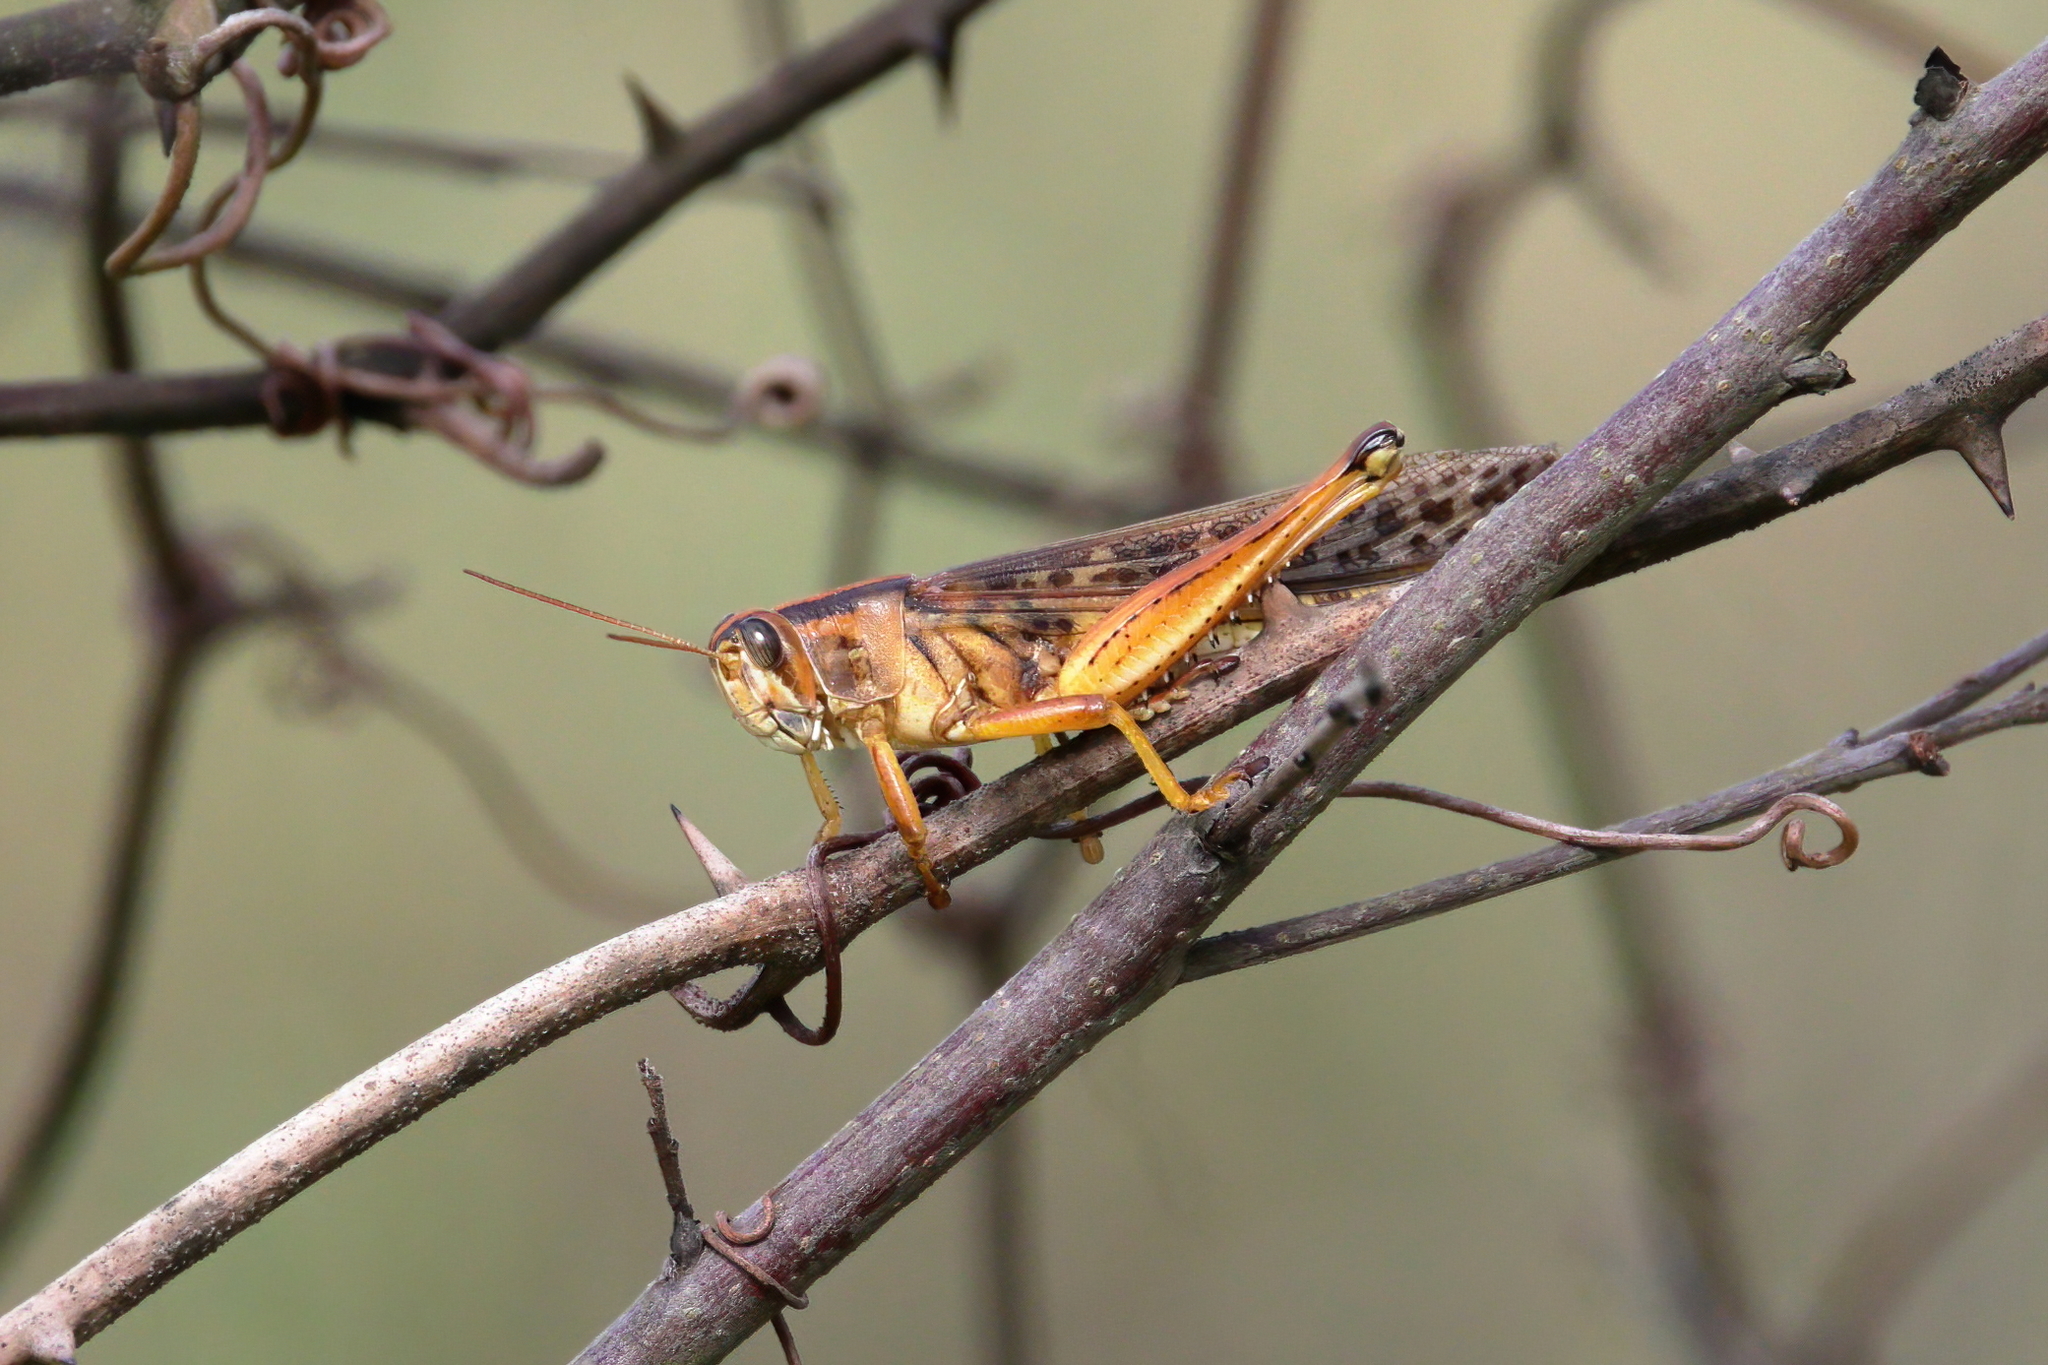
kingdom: Animalia
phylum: Arthropoda
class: Insecta
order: Orthoptera
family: Acrididae
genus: Schistocerca
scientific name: Schistocerca americana
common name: American bird locust
